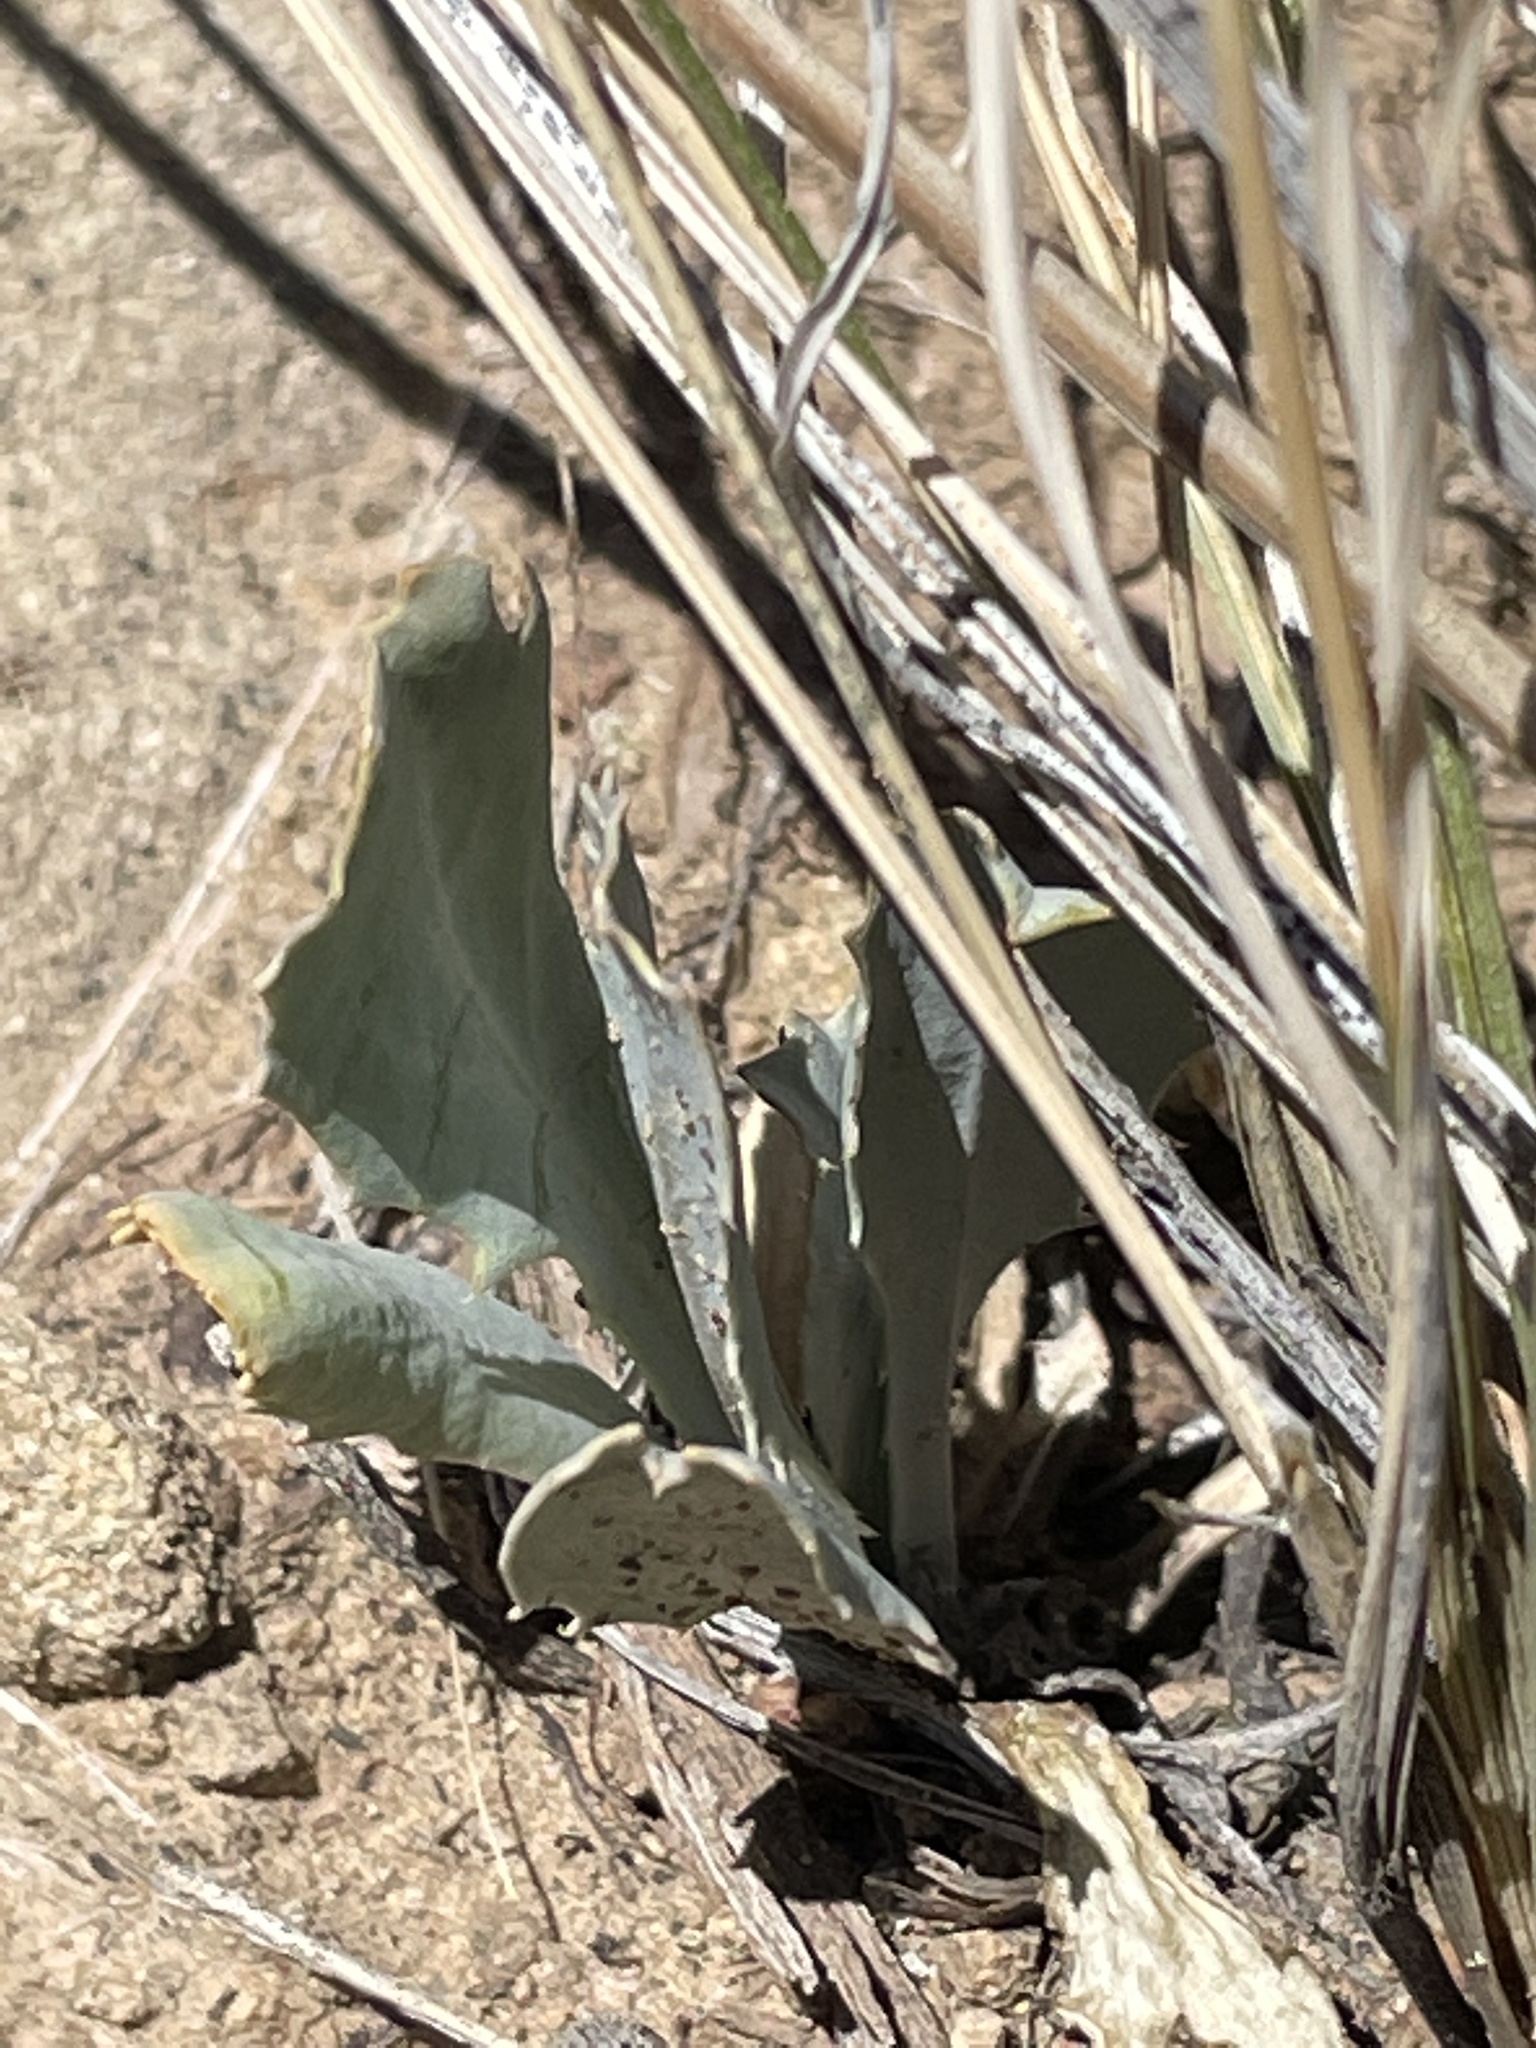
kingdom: Plantae
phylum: Tracheophyta
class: Magnoliopsida
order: Brassicales
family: Brassicaceae
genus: Streptanthus
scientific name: Streptanthus cordatus
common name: Heart-leaf jewel-flower
